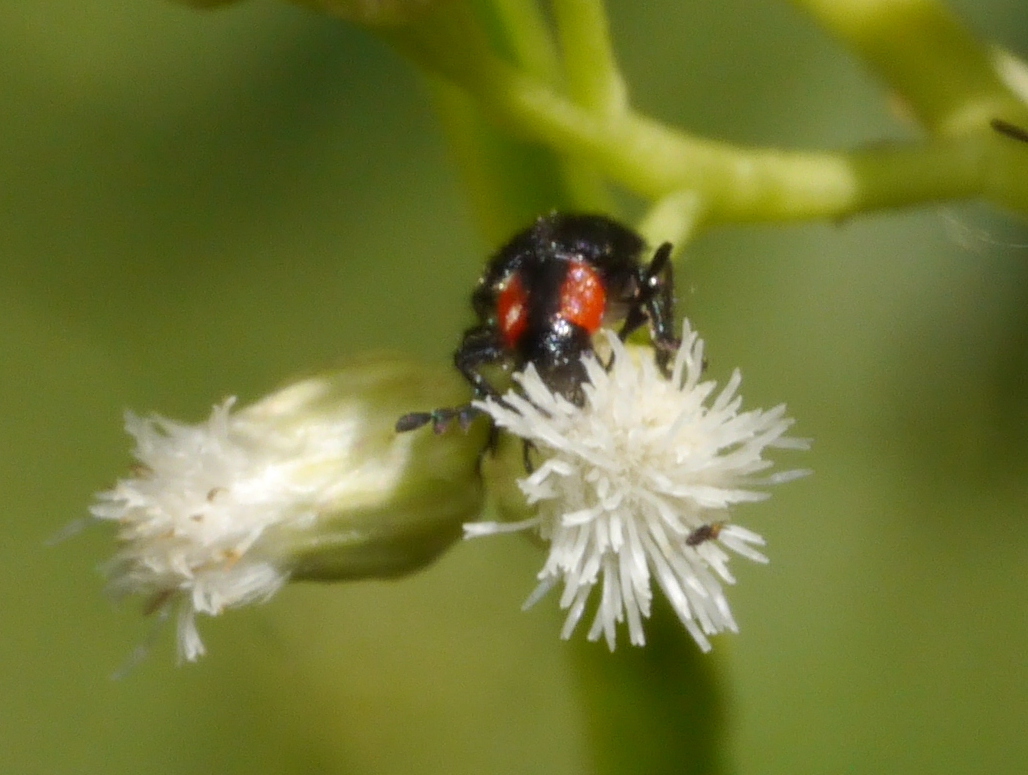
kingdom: Animalia
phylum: Arthropoda
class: Insecta
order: Coleoptera
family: Cleridae
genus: Pelonides
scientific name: Pelonides humeralis
